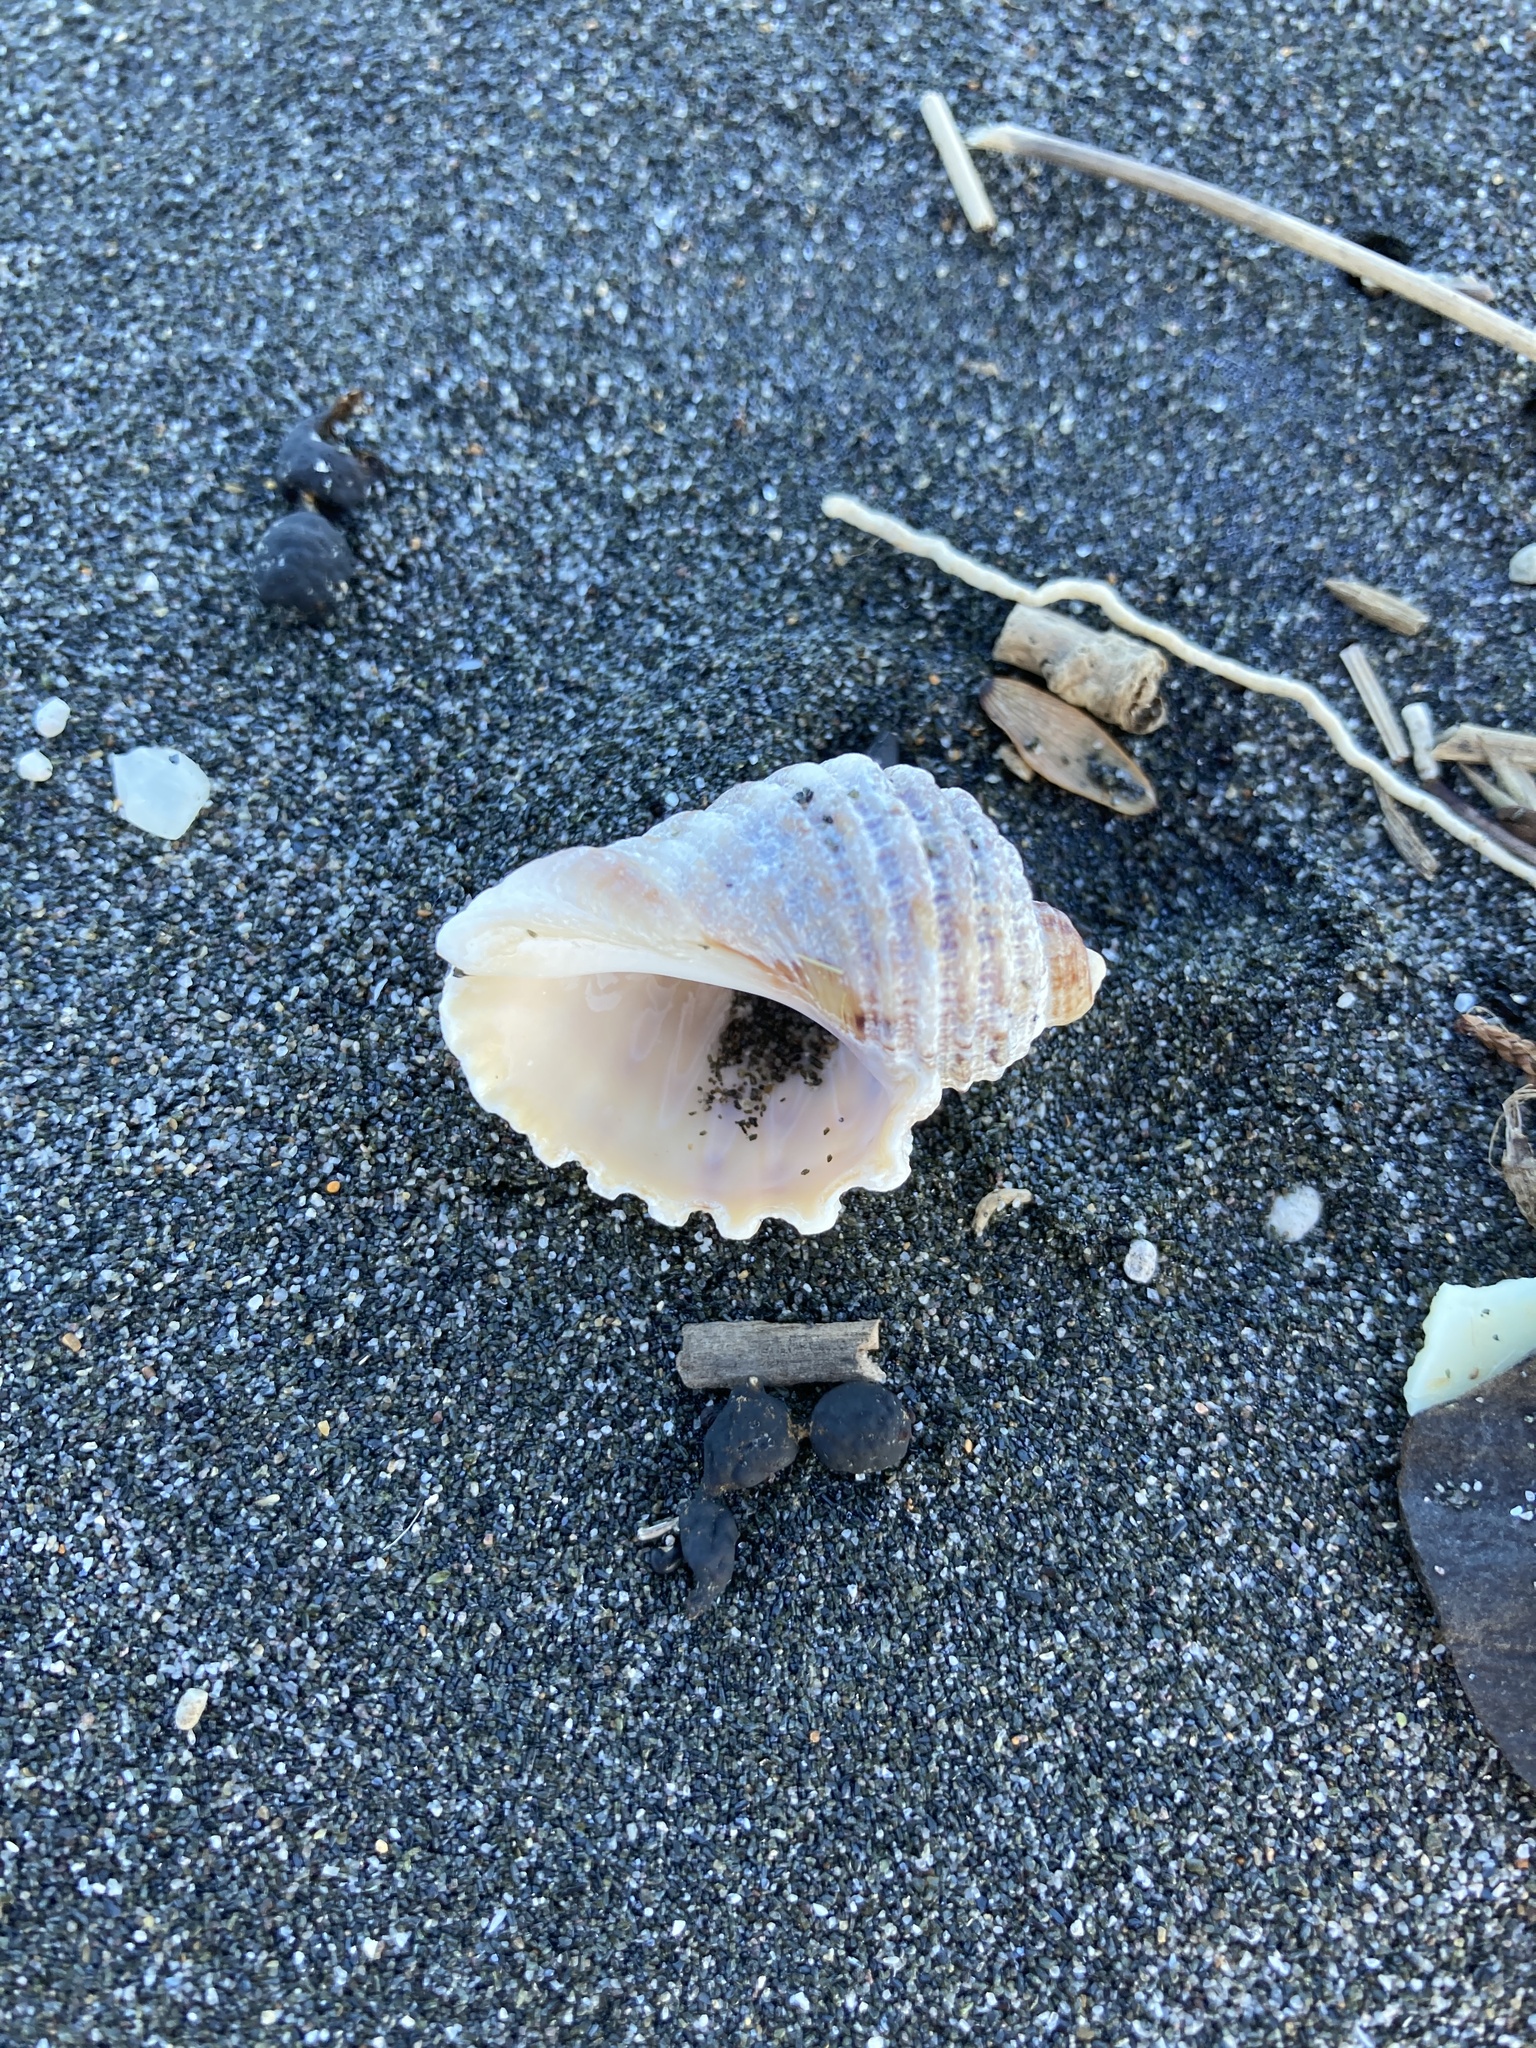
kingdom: Animalia
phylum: Mollusca
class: Gastropoda
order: Neogastropoda
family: Muricidae
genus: Dicathais
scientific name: Dicathais orbita
